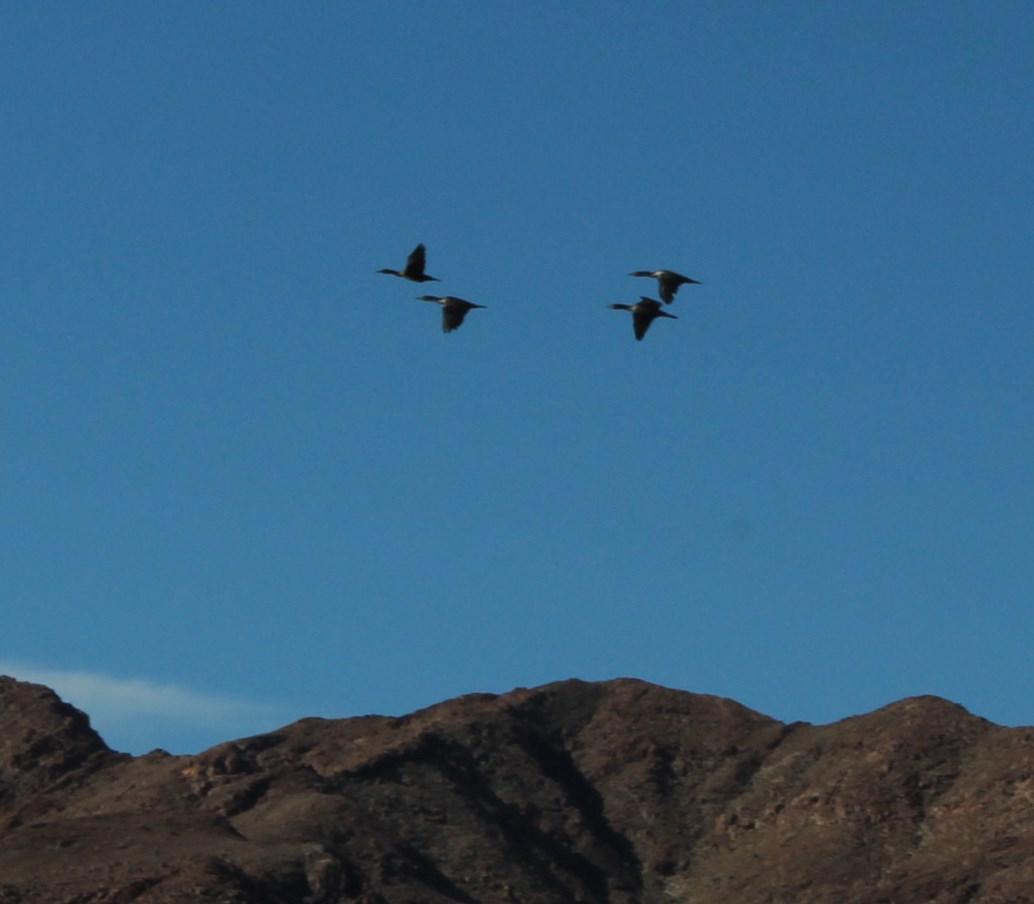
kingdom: Animalia
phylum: Chordata
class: Aves
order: Suliformes
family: Phalacrocoracidae
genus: Phalacrocorax
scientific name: Phalacrocorax carbo
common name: Great cormorant
